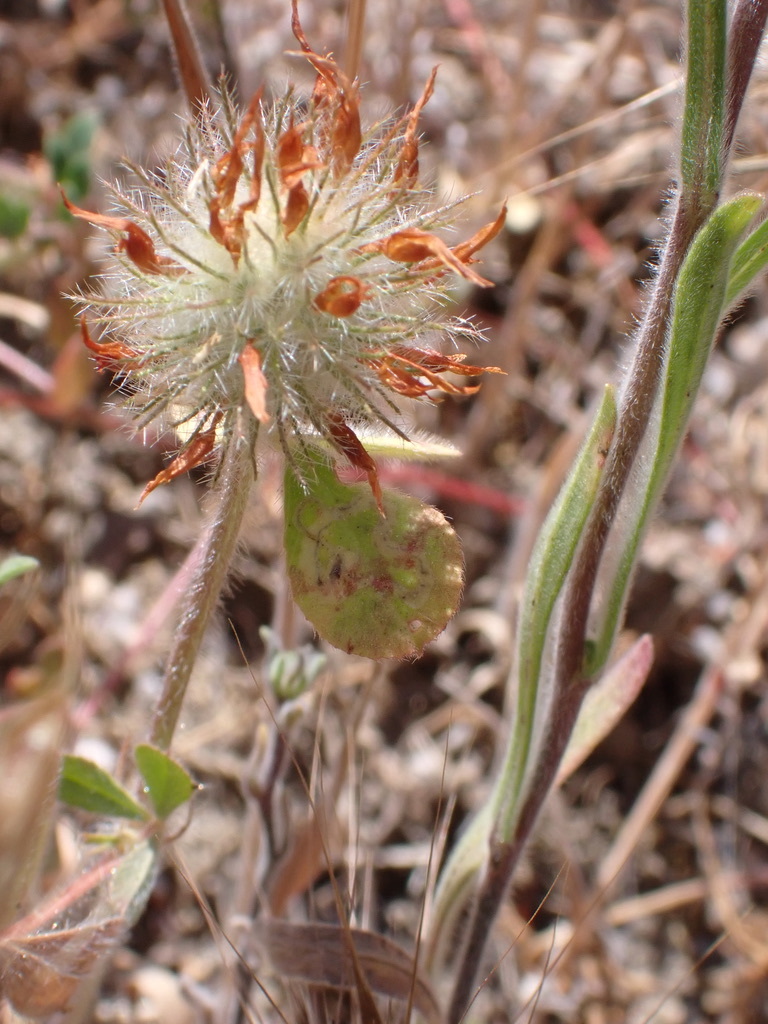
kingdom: Plantae
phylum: Tracheophyta
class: Magnoliopsida
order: Fabales
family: Fabaceae
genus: Trifolium
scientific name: Trifolium hirtum
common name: Rose clover
